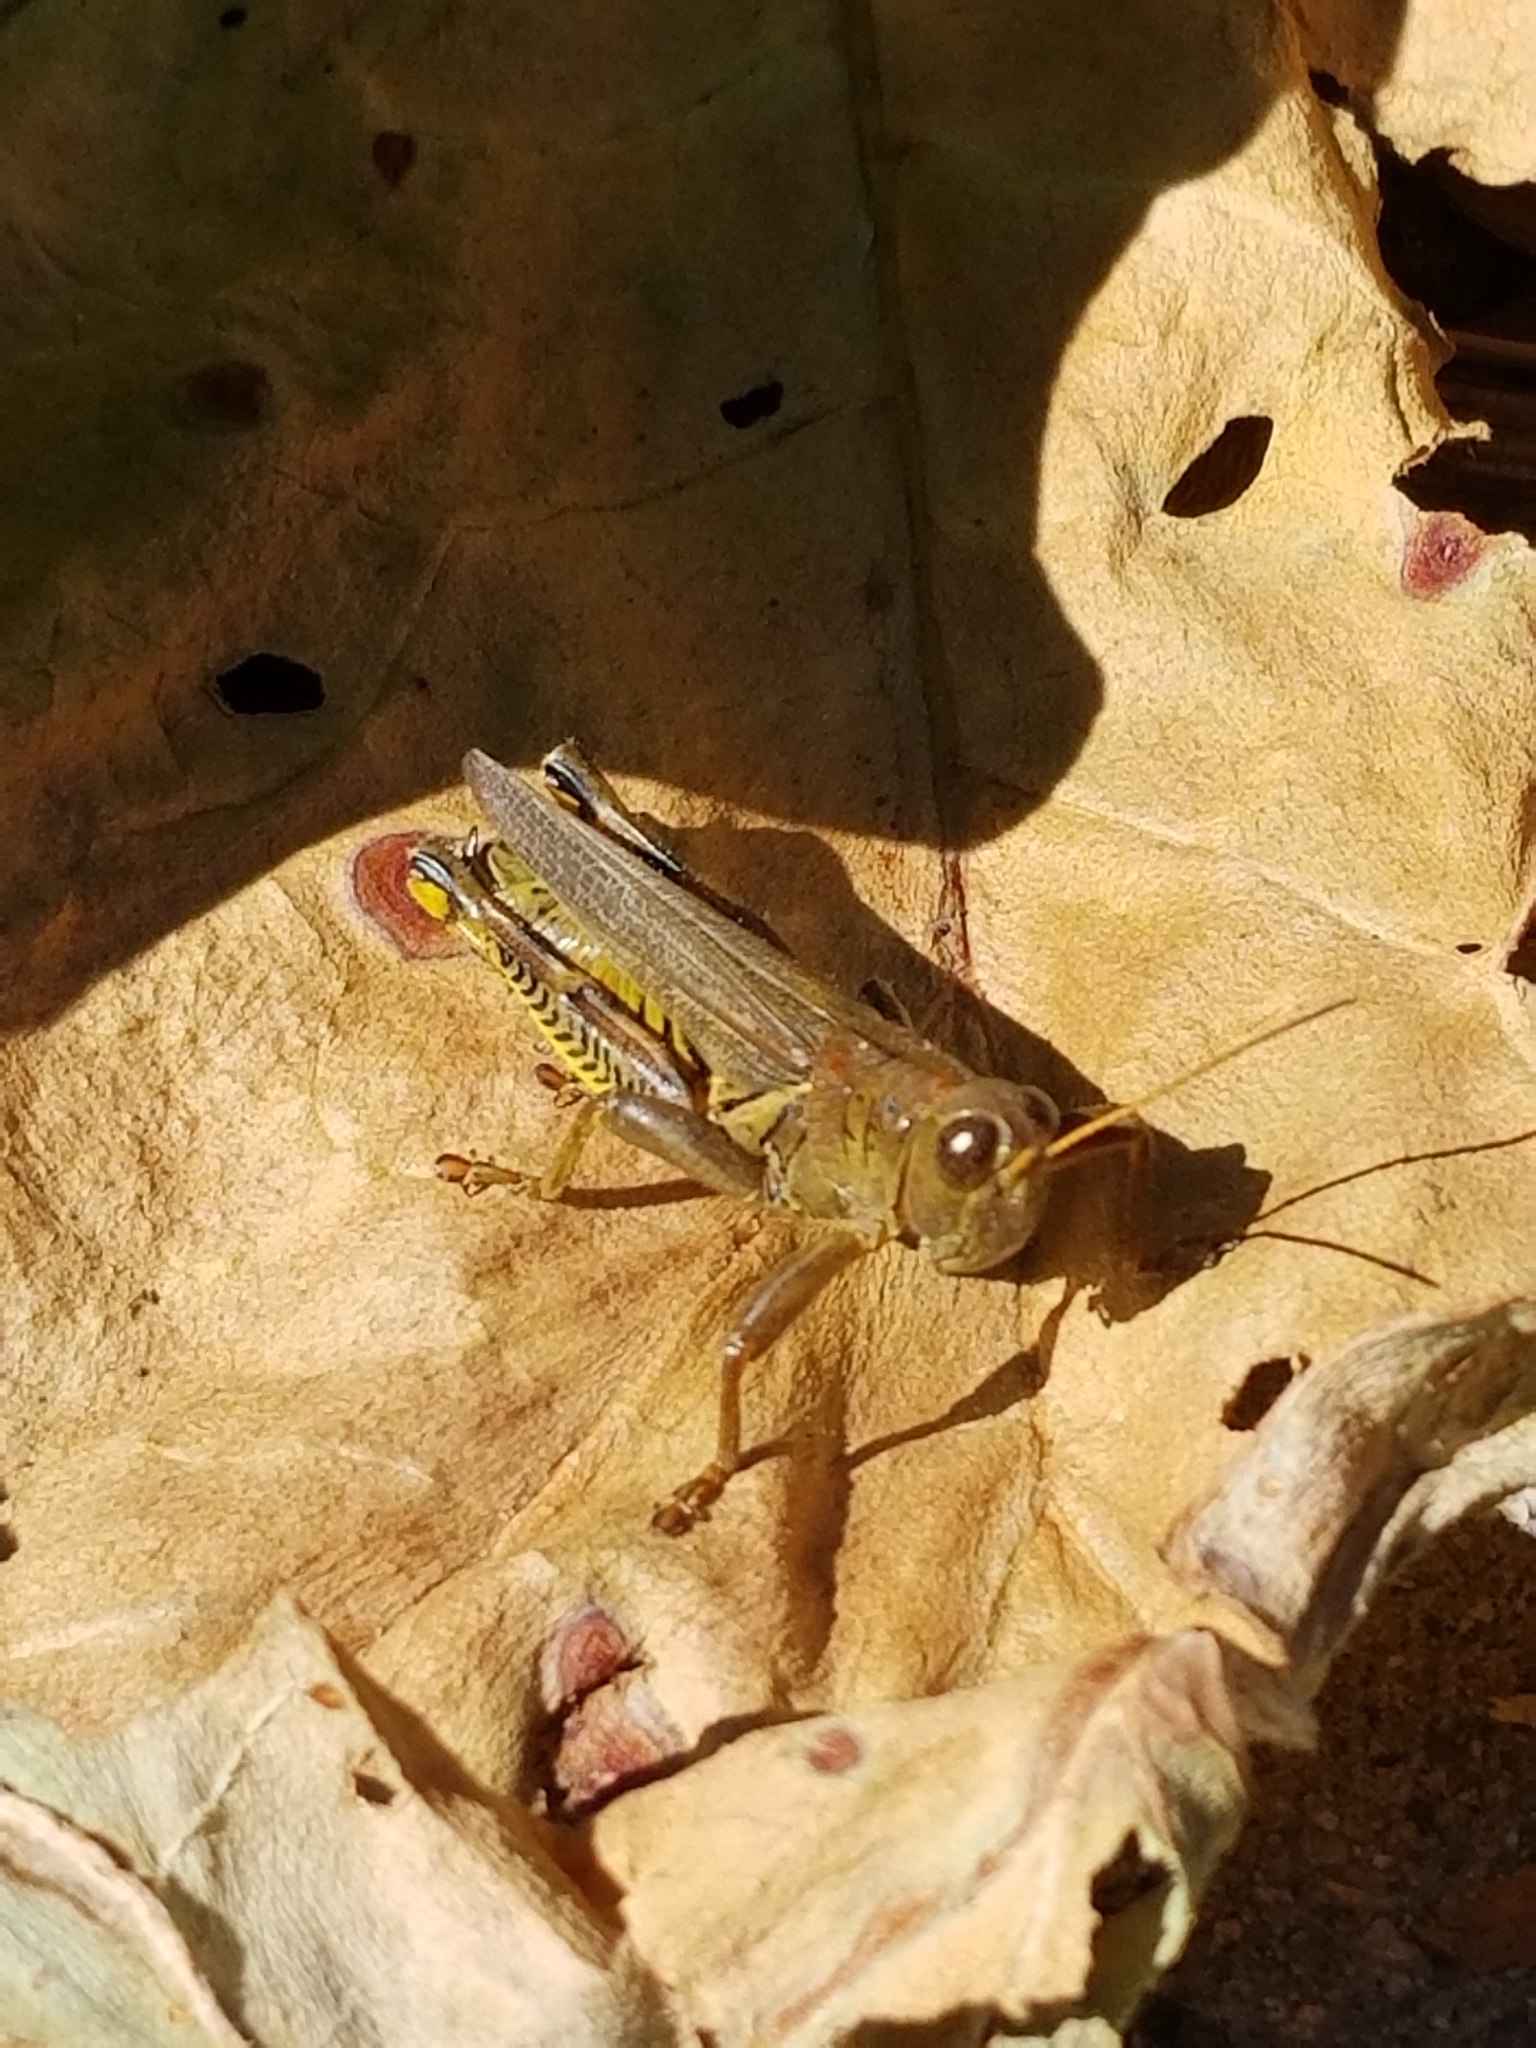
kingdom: Animalia
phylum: Arthropoda
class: Insecta
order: Orthoptera
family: Acrididae
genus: Melanoplus
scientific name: Melanoplus differentialis
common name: Differential grasshopper
